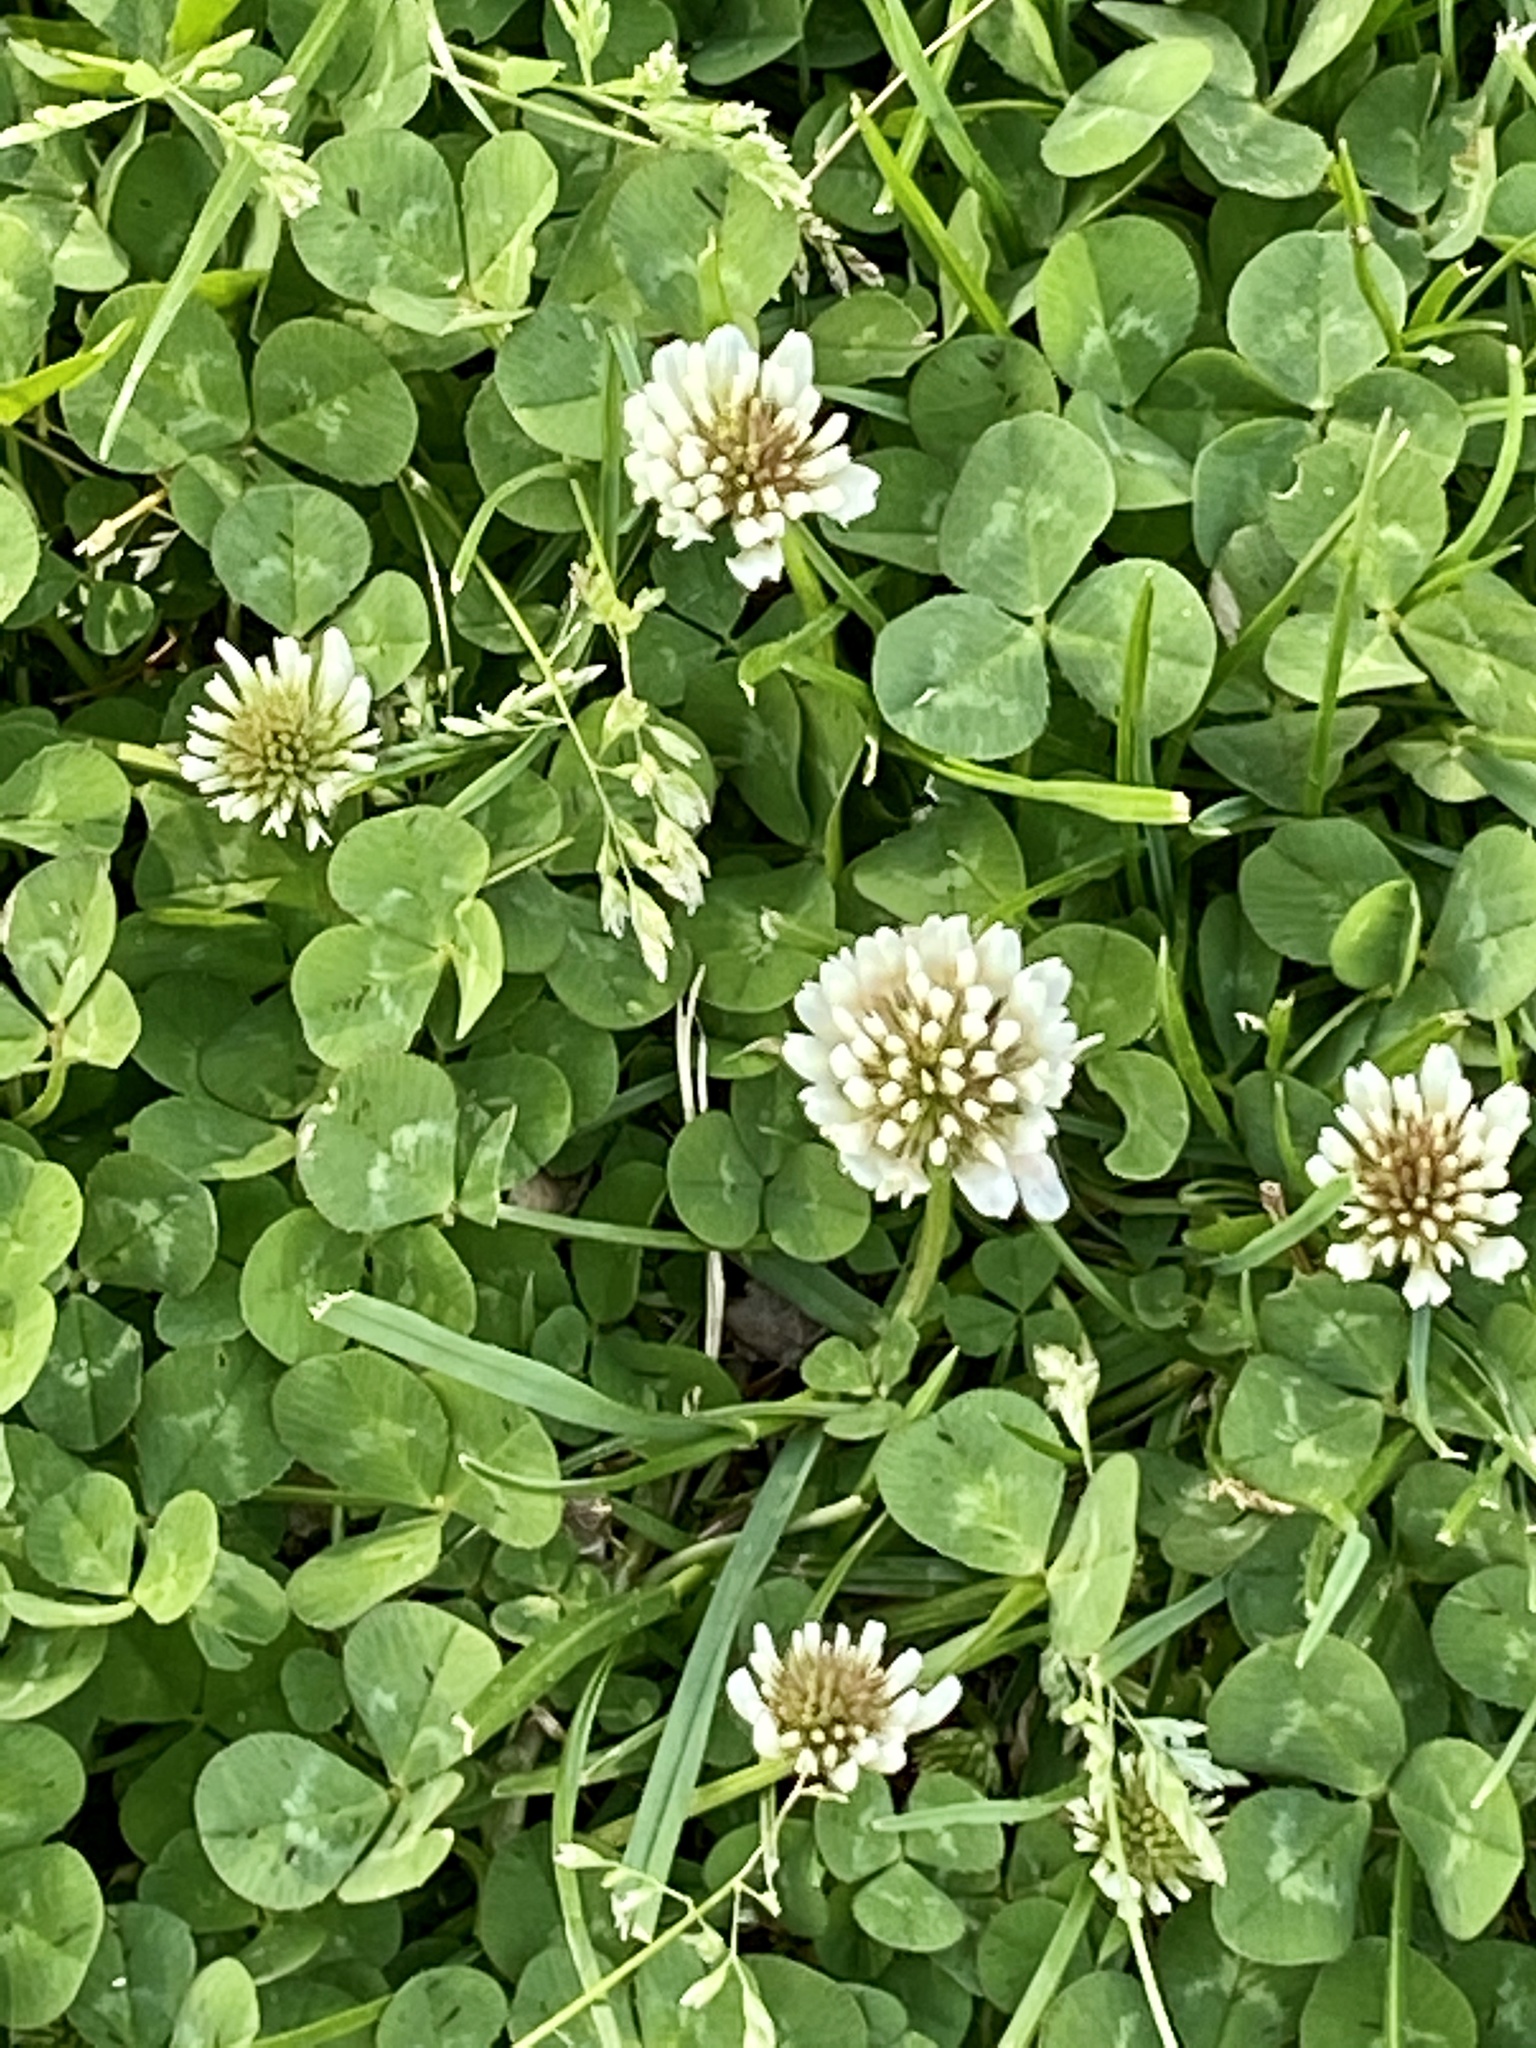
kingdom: Plantae
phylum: Tracheophyta
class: Magnoliopsida
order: Fabales
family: Fabaceae
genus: Trifolium
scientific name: Trifolium repens
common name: White clover
